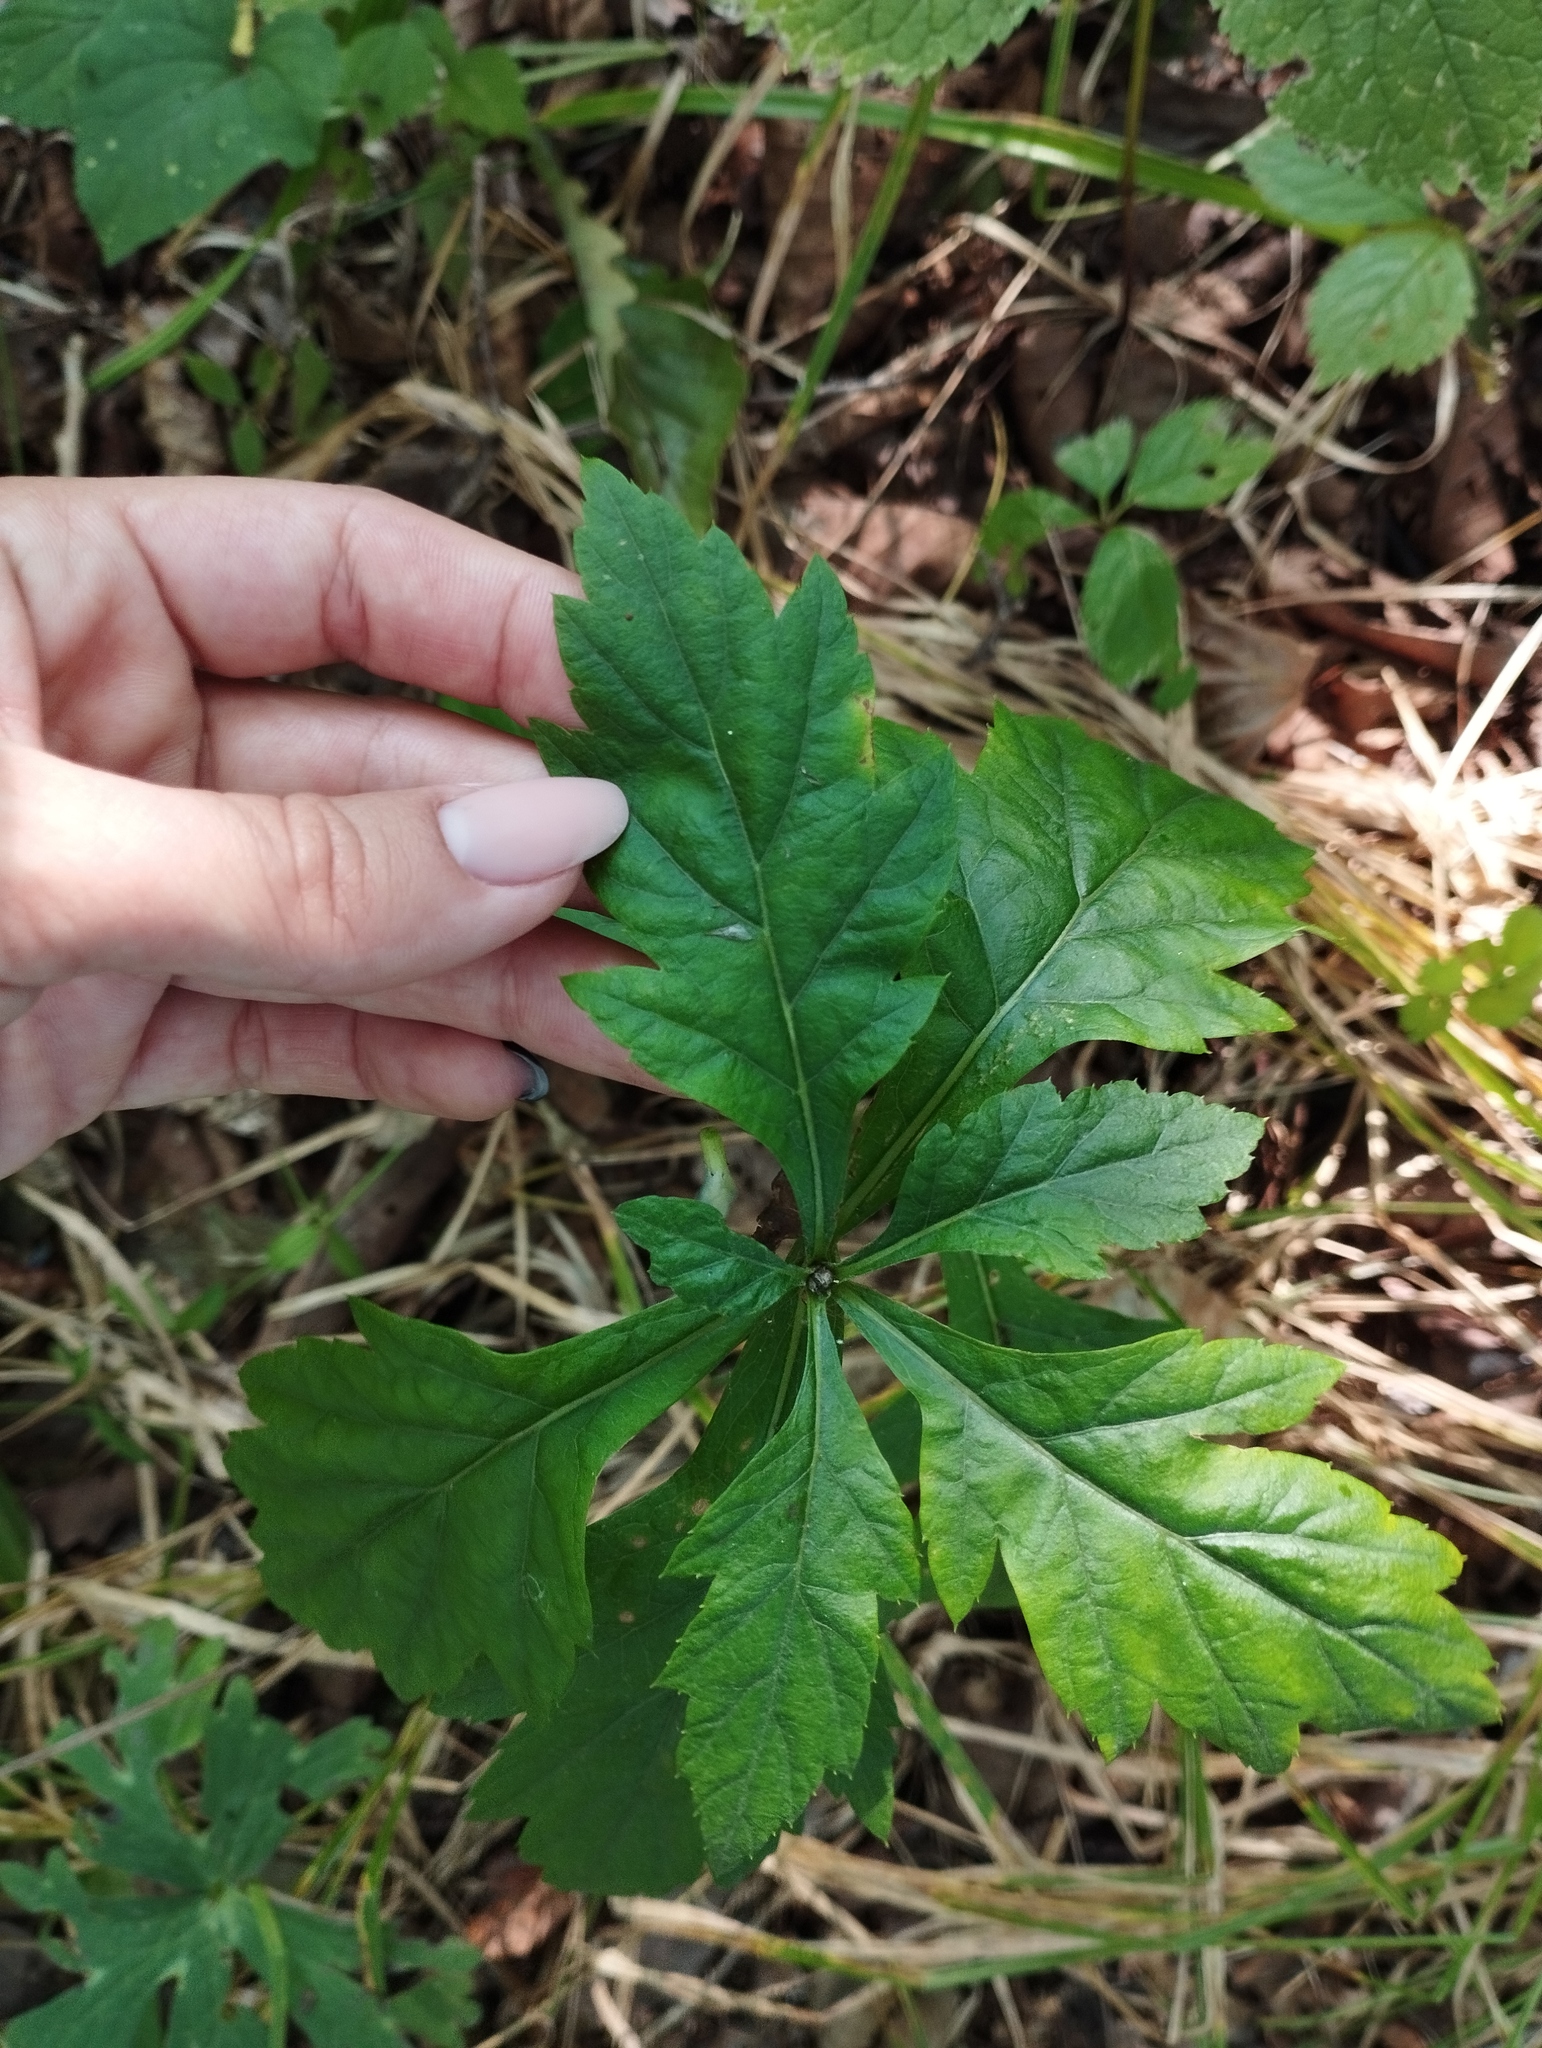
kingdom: Plantae
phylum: Tracheophyta
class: Magnoliopsida
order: Asterales
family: Asteraceae
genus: Artemisia
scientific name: Artemisia stolonifera
